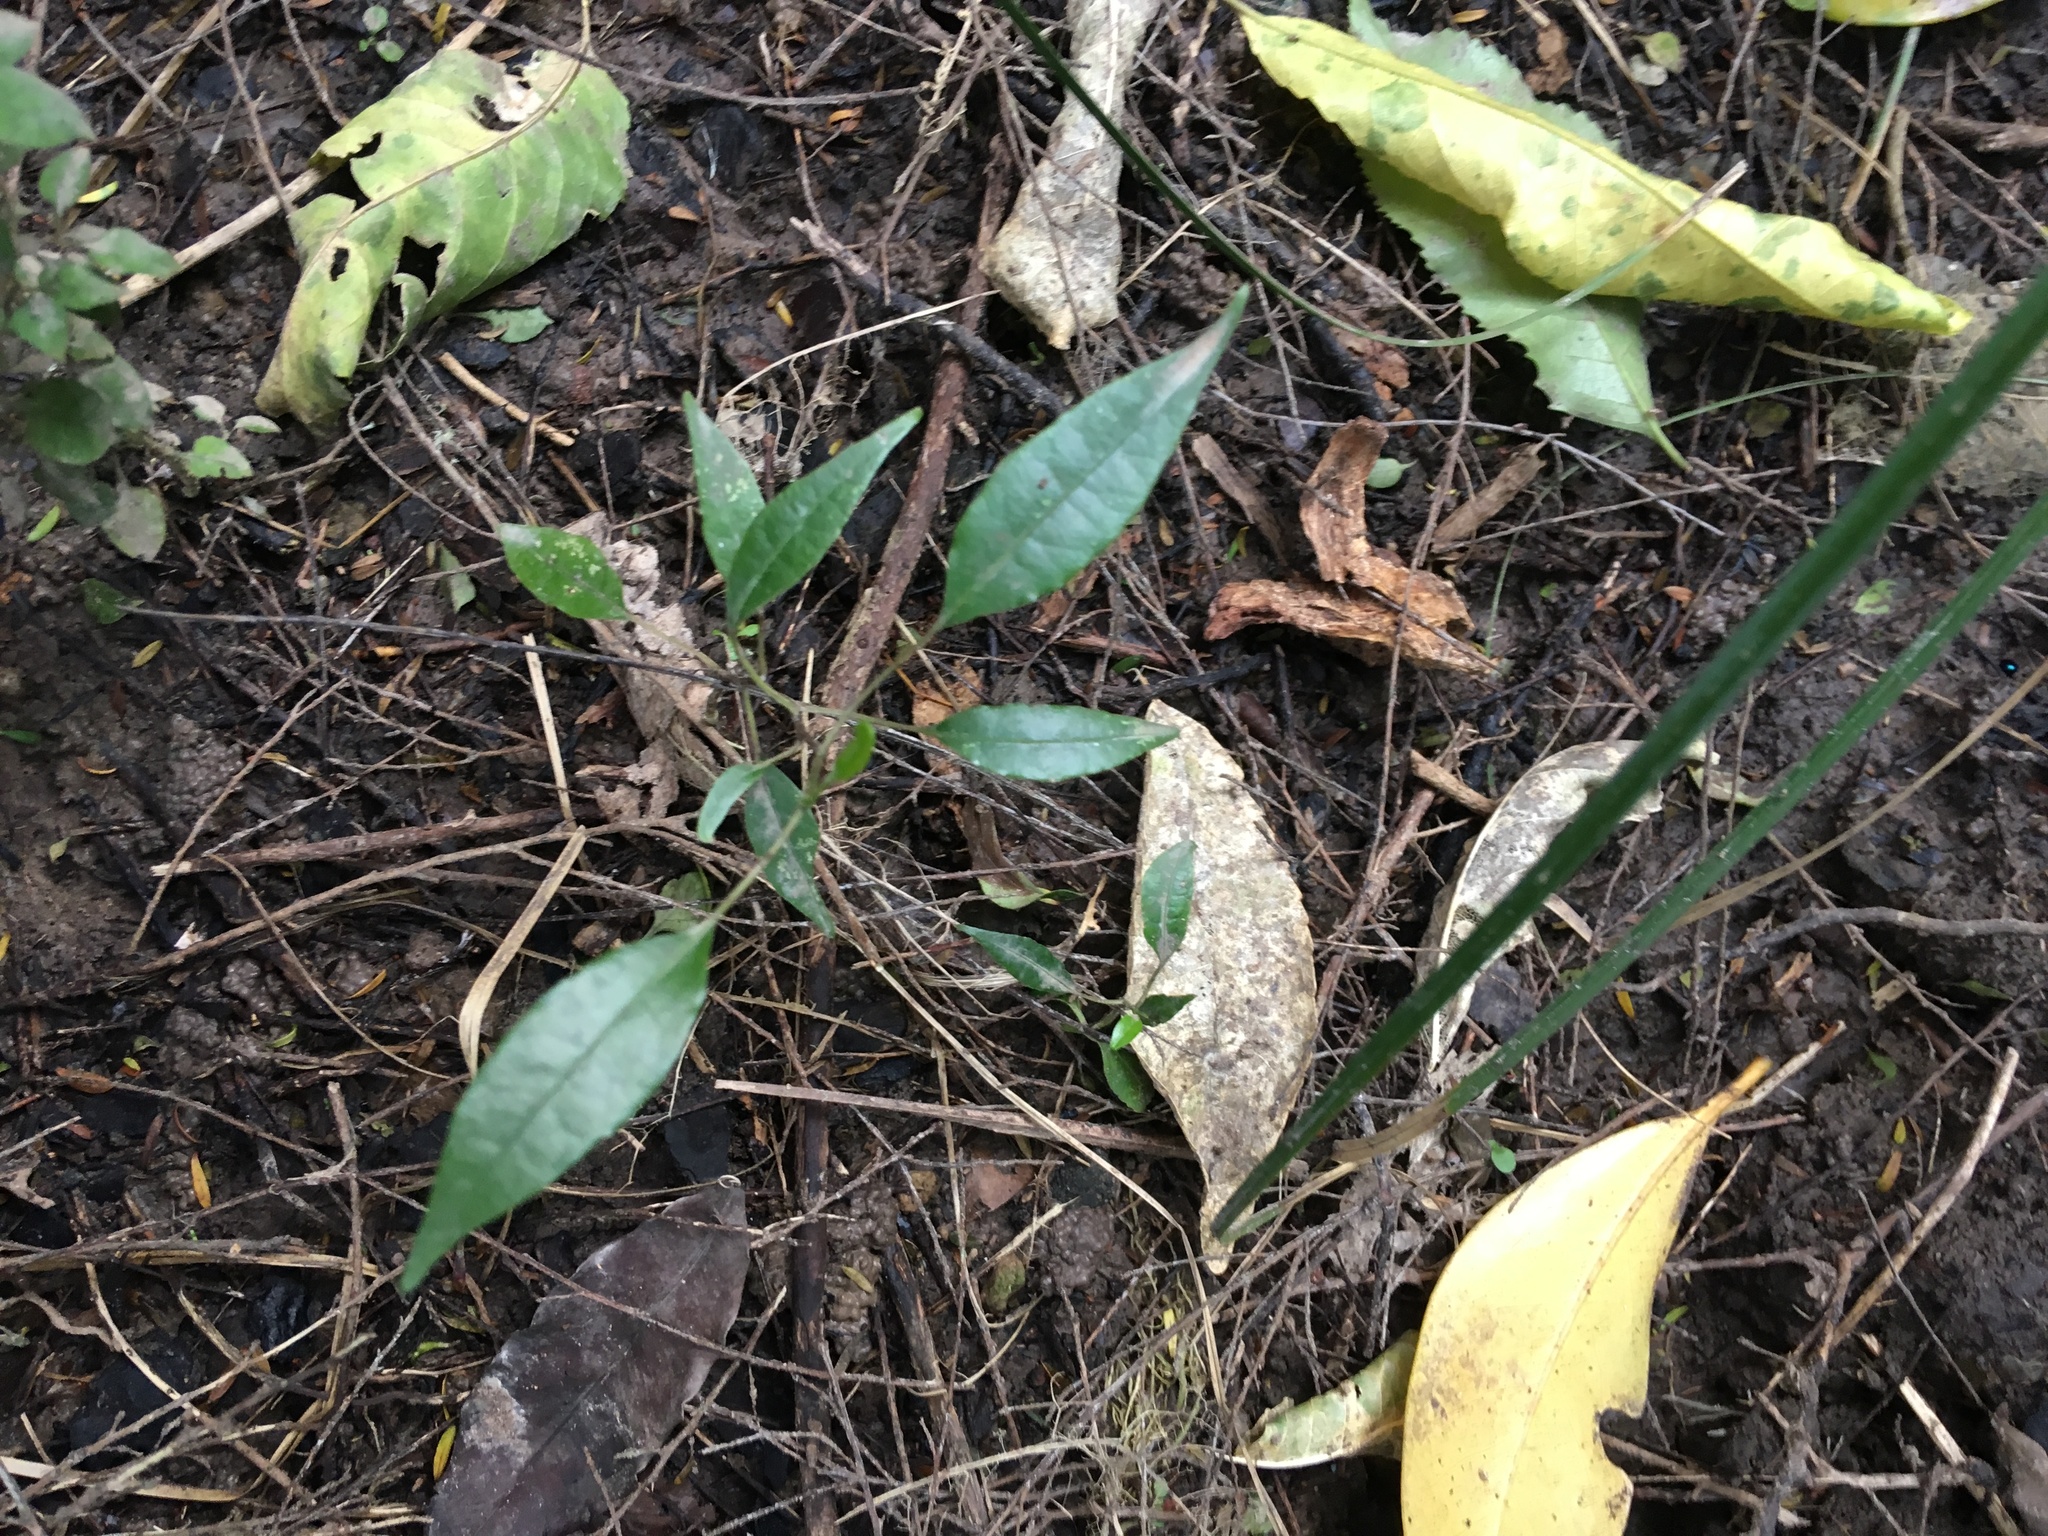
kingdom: Plantae
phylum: Tracheophyta
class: Magnoliopsida
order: Malpighiales
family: Passifloraceae
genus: Passiflora
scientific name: Passiflora tetrandra
